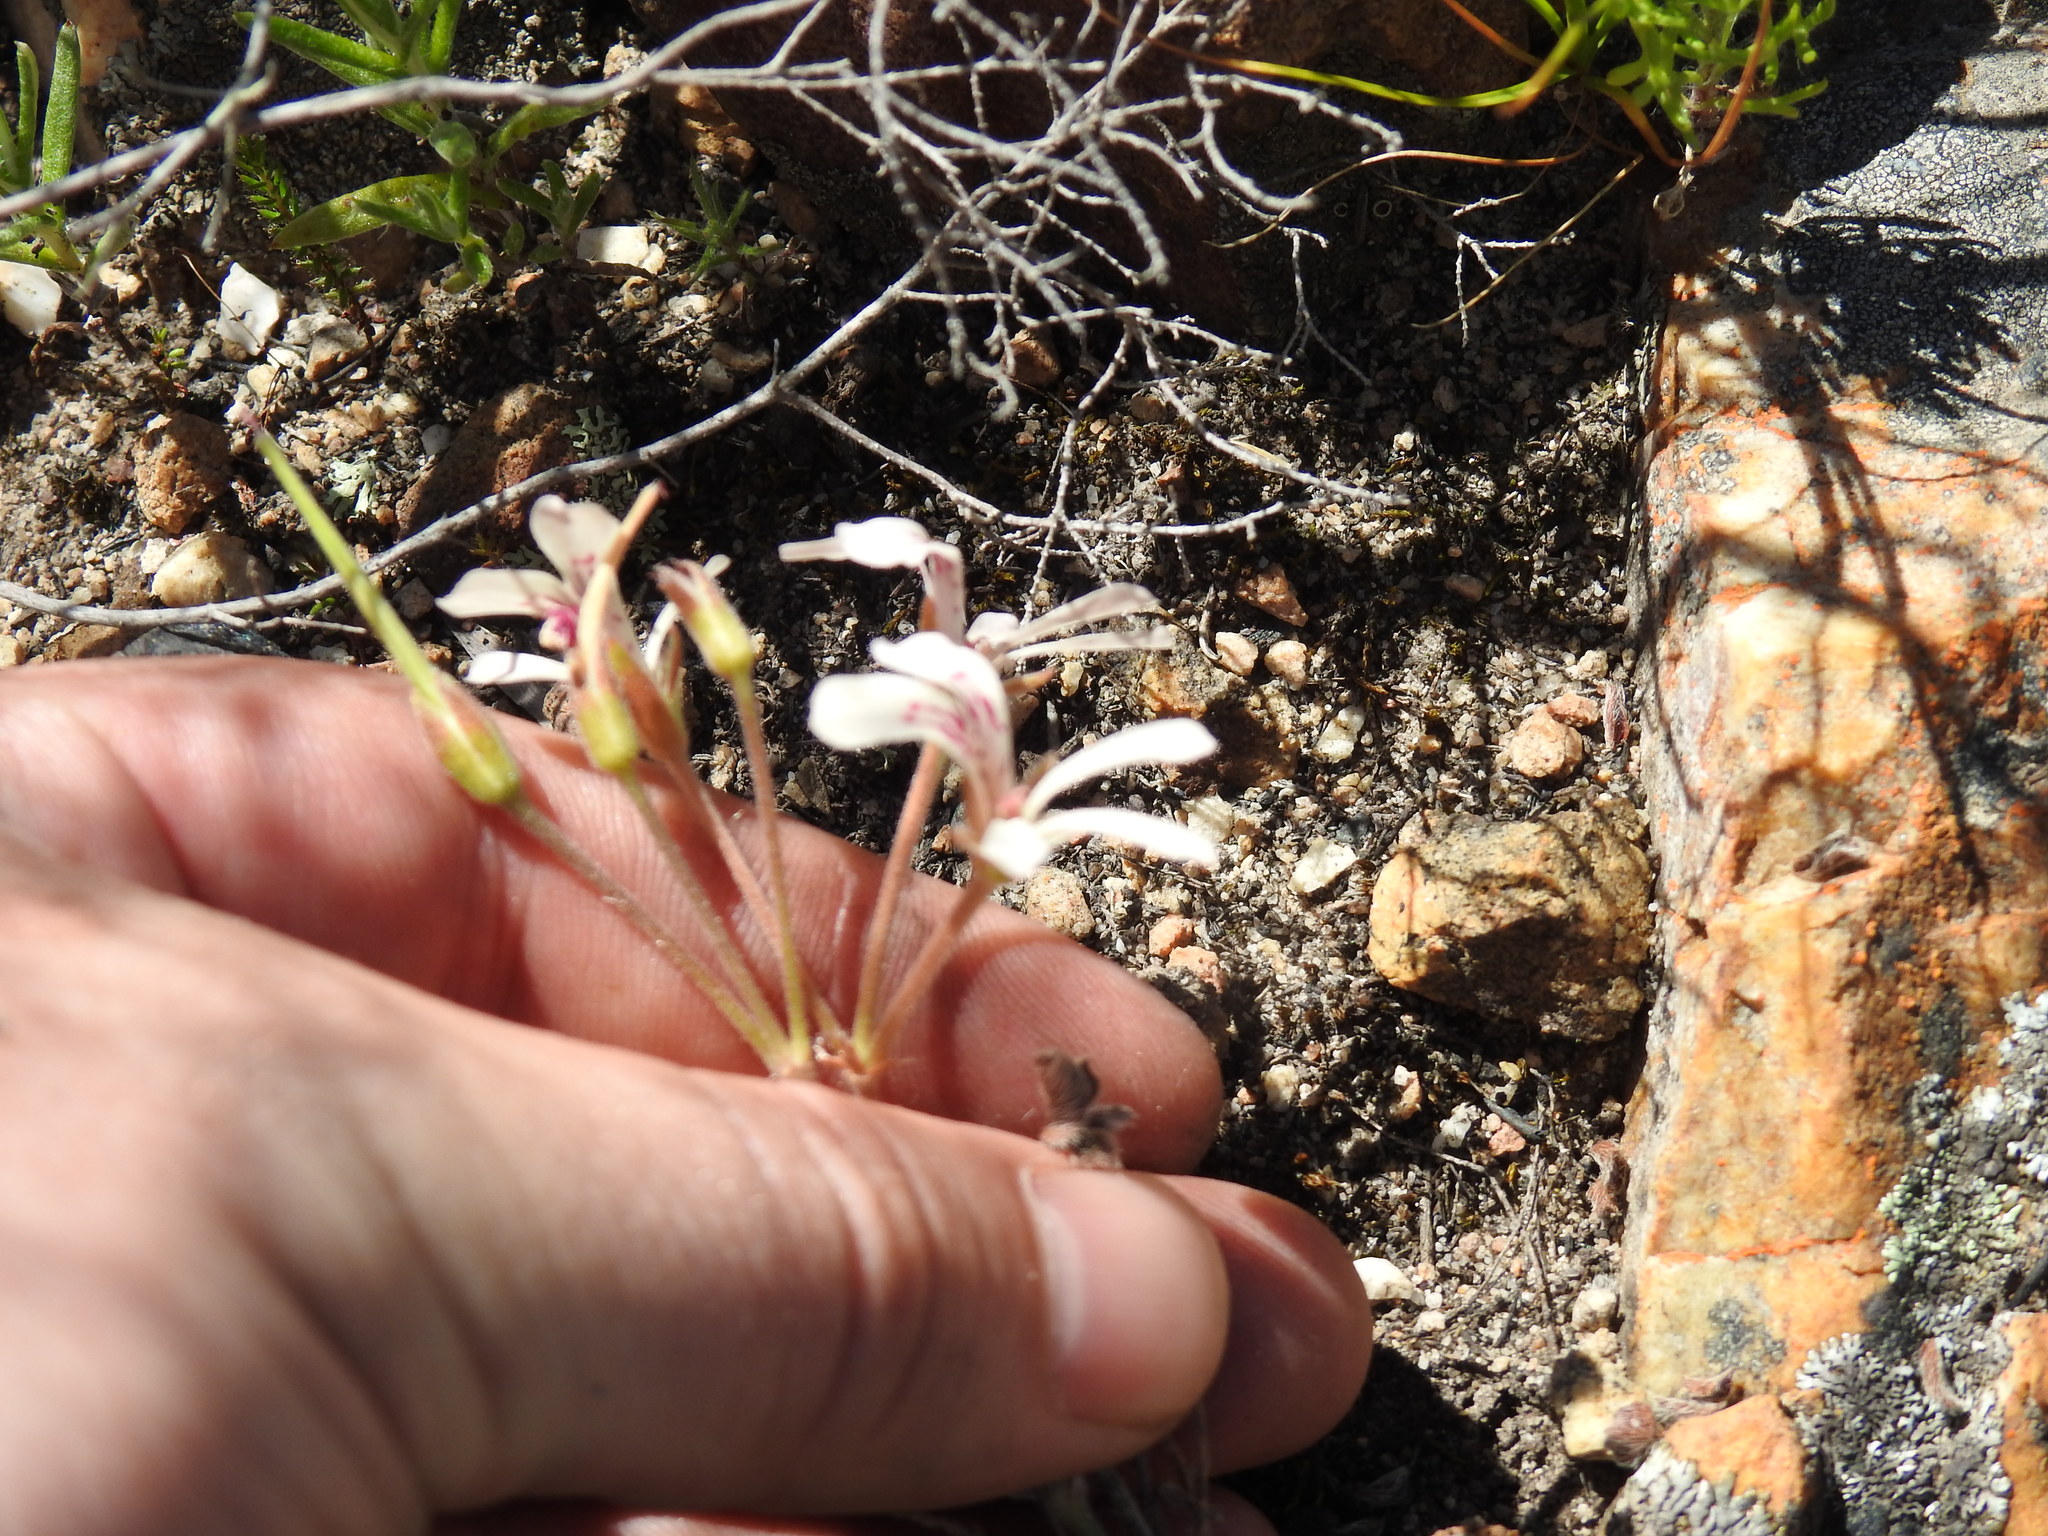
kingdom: Plantae
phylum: Tracheophyta
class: Magnoliopsida
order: Geraniales
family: Geraniaceae
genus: Pelargonium
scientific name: Pelargonium pinnatum
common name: Pinnated pelargonium
